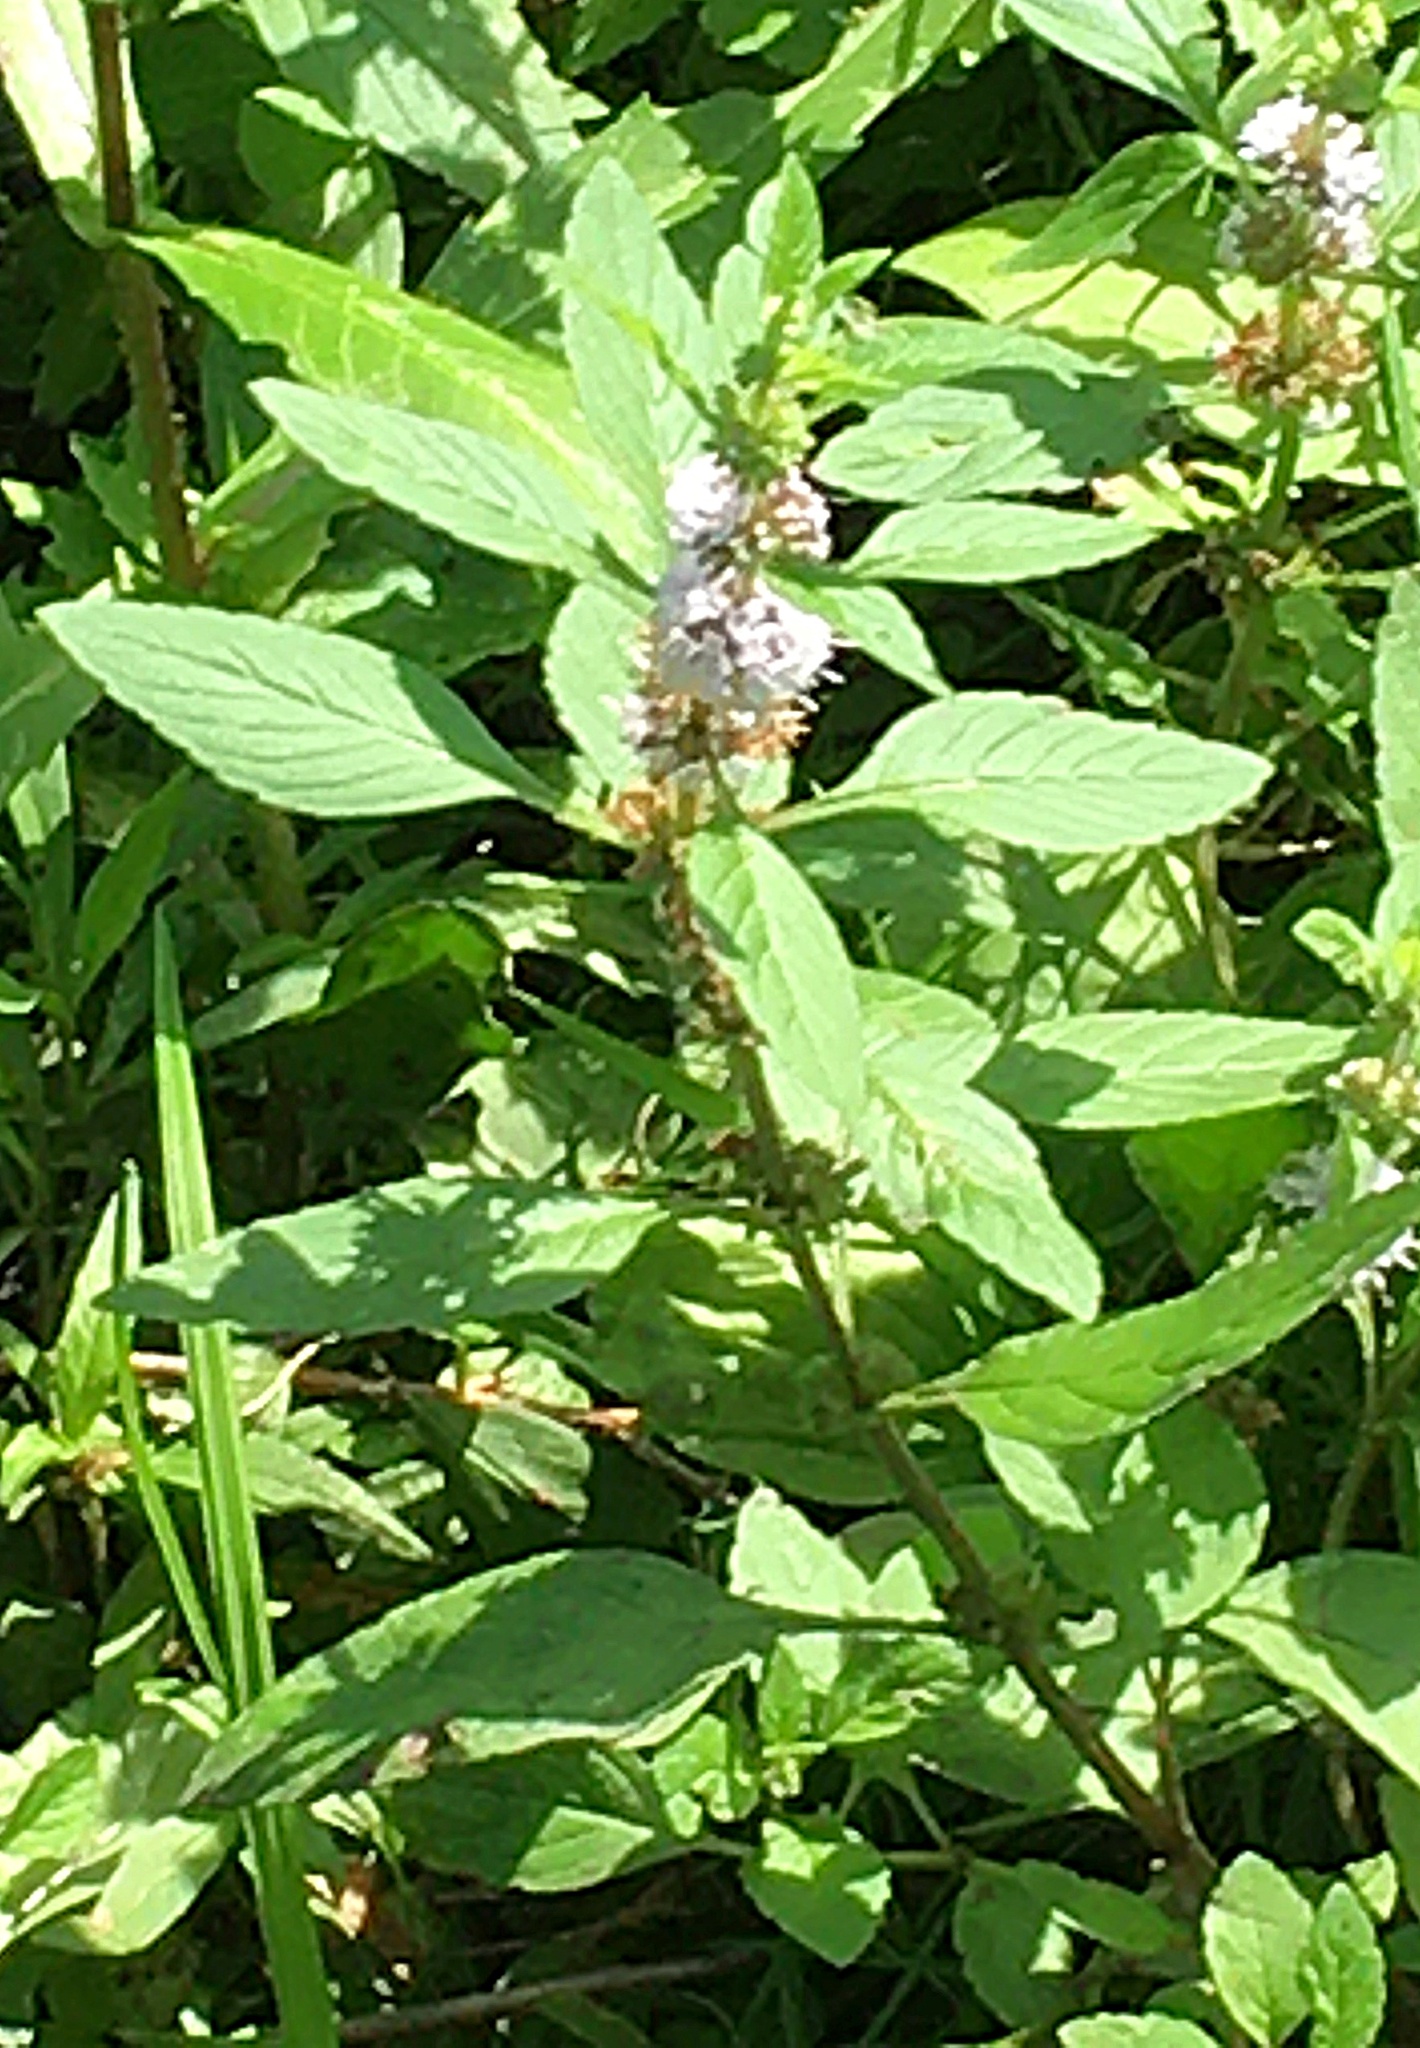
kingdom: Plantae
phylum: Tracheophyta
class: Magnoliopsida
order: Lamiales
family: Lamiaceae
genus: Mentha
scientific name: Mentha canadensis
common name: American corn mint
